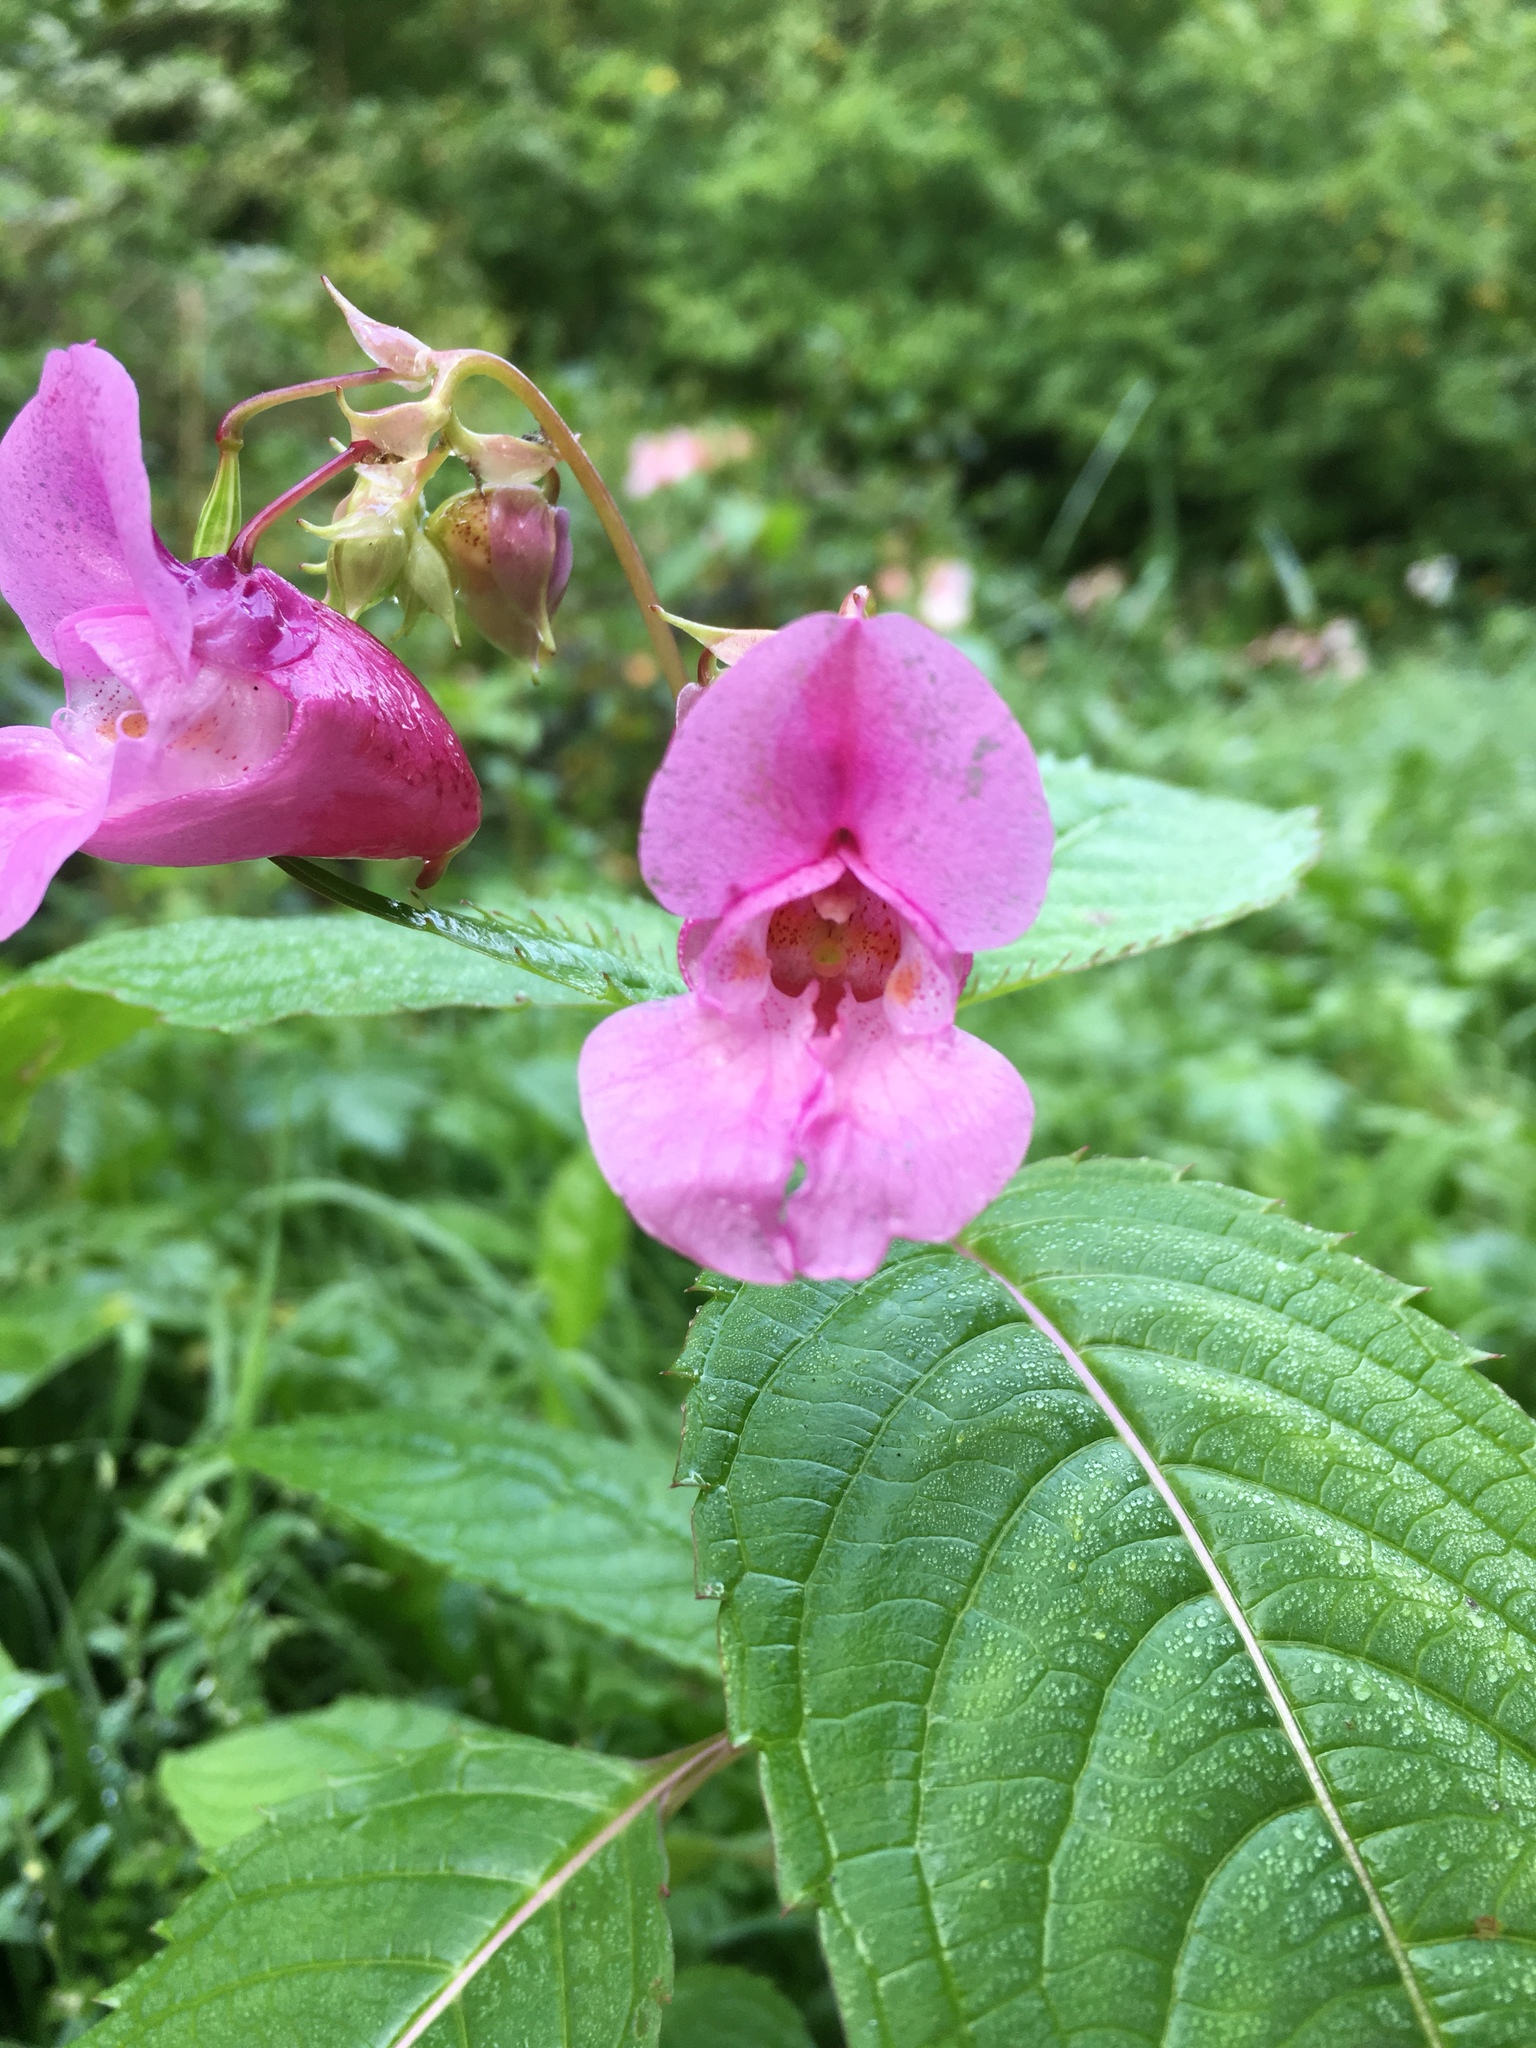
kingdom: Plantae
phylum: Tracheophyta
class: Magnoliopsida
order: Ericales
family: Balsaminaceae
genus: Impatiens
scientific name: Impatiens glandulifera
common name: Himalayan balsam
